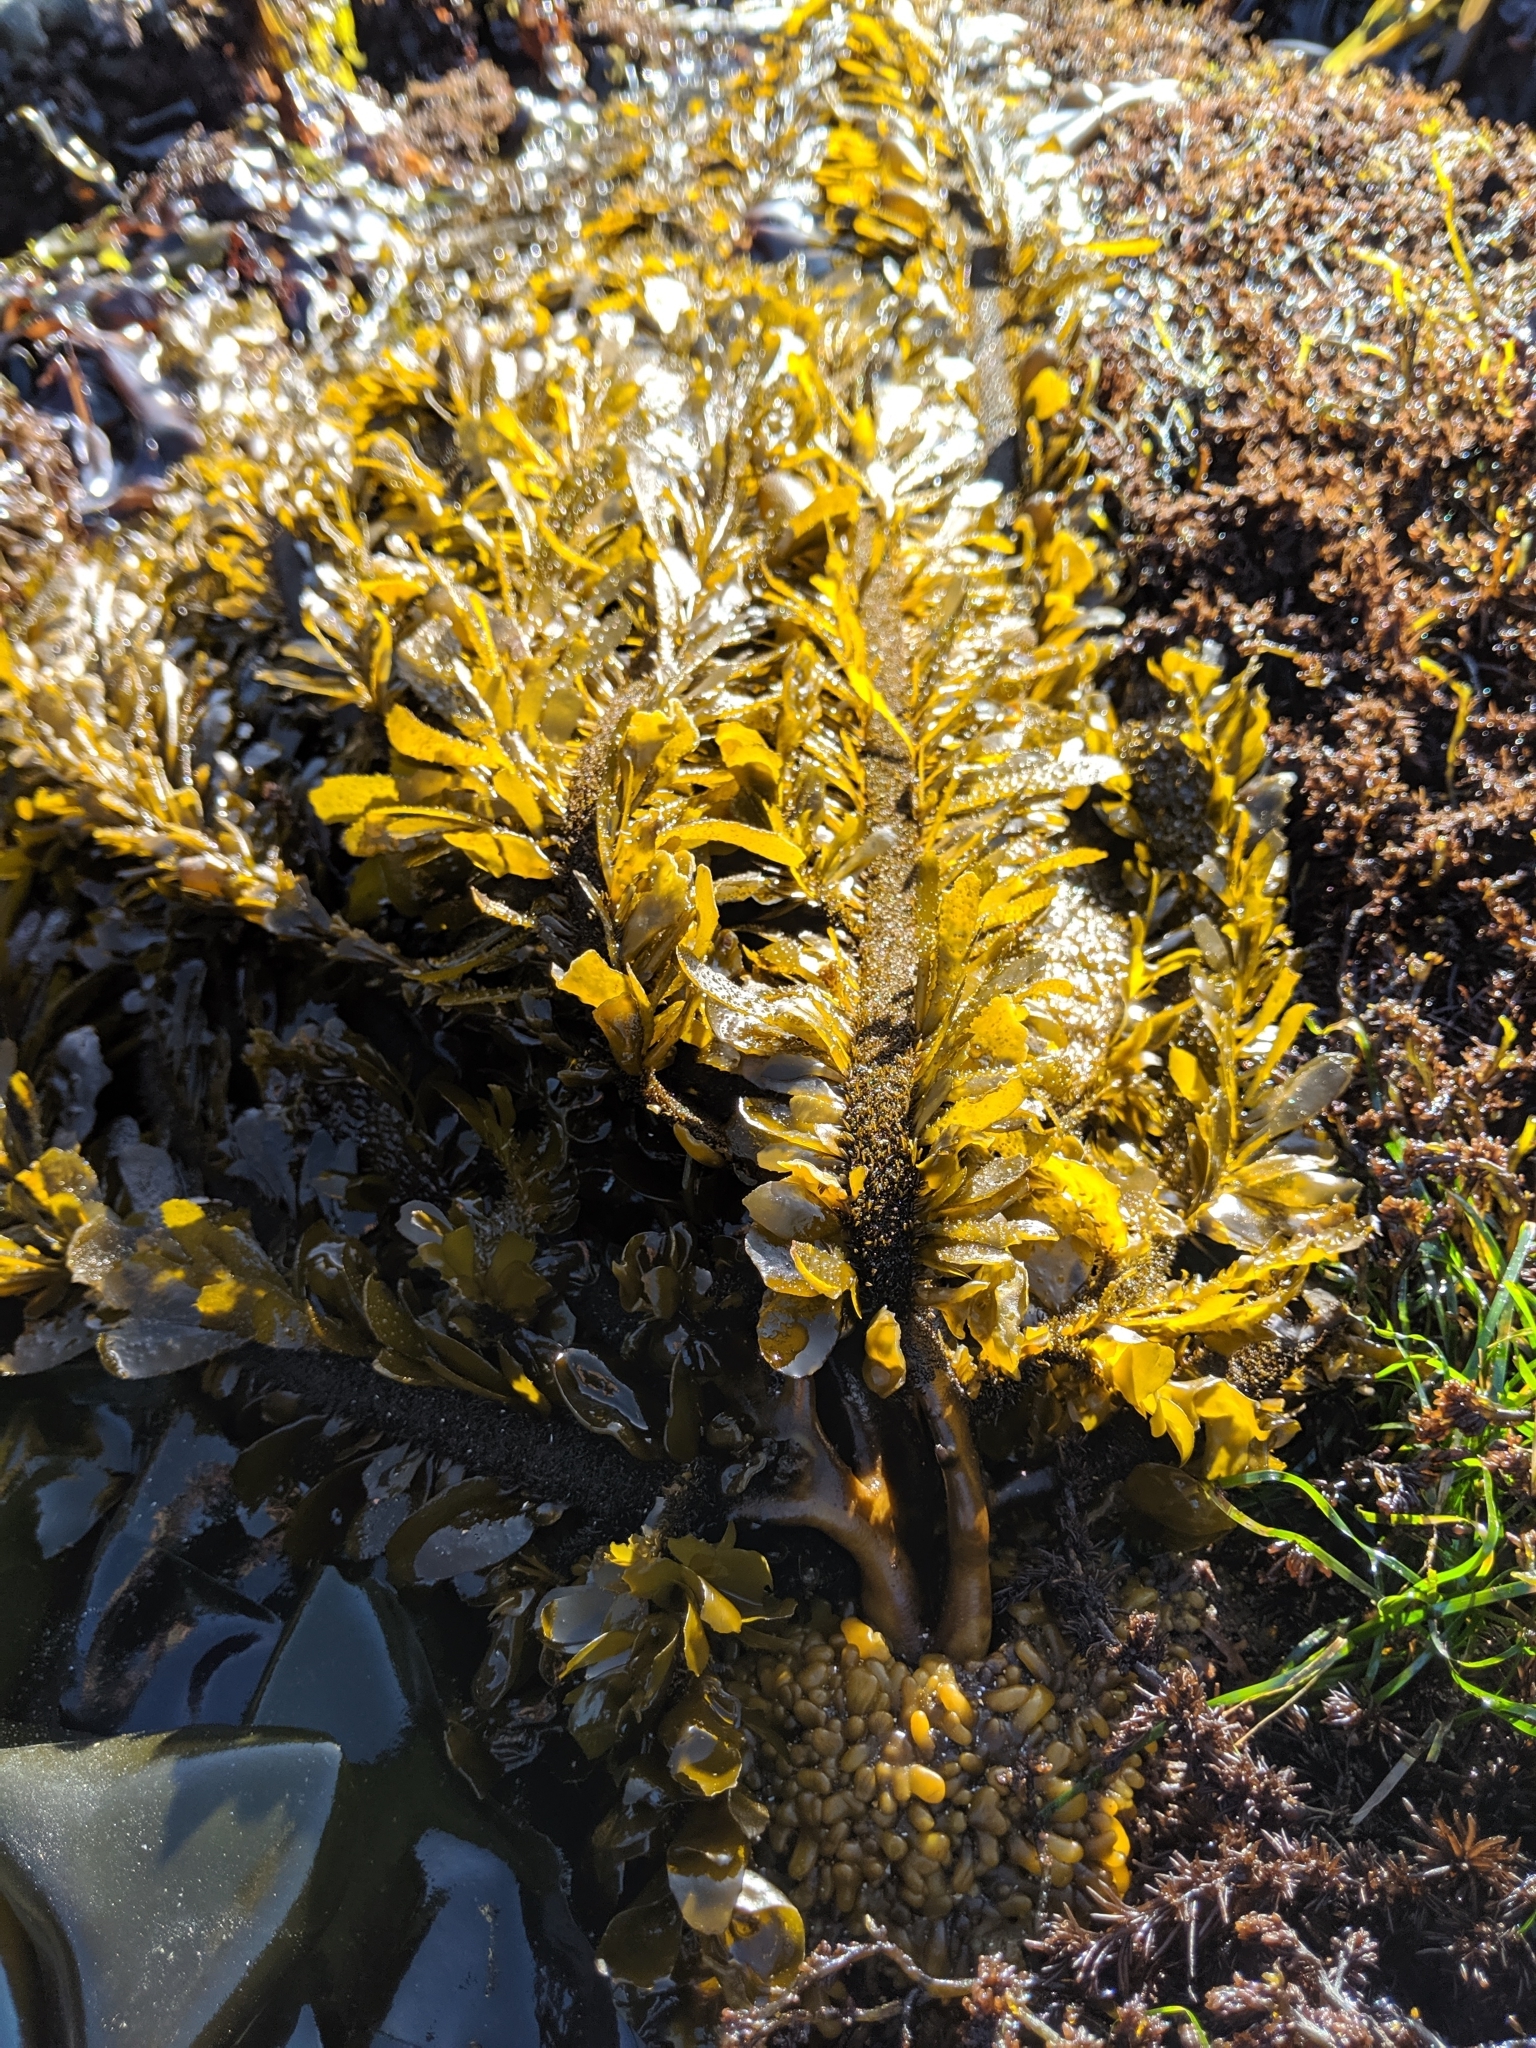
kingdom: Chromista
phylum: Ochrophyta
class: Phaeophyceae
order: Laminariales
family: Lessoniaceae
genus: Egregia
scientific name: Egregia menziesii
